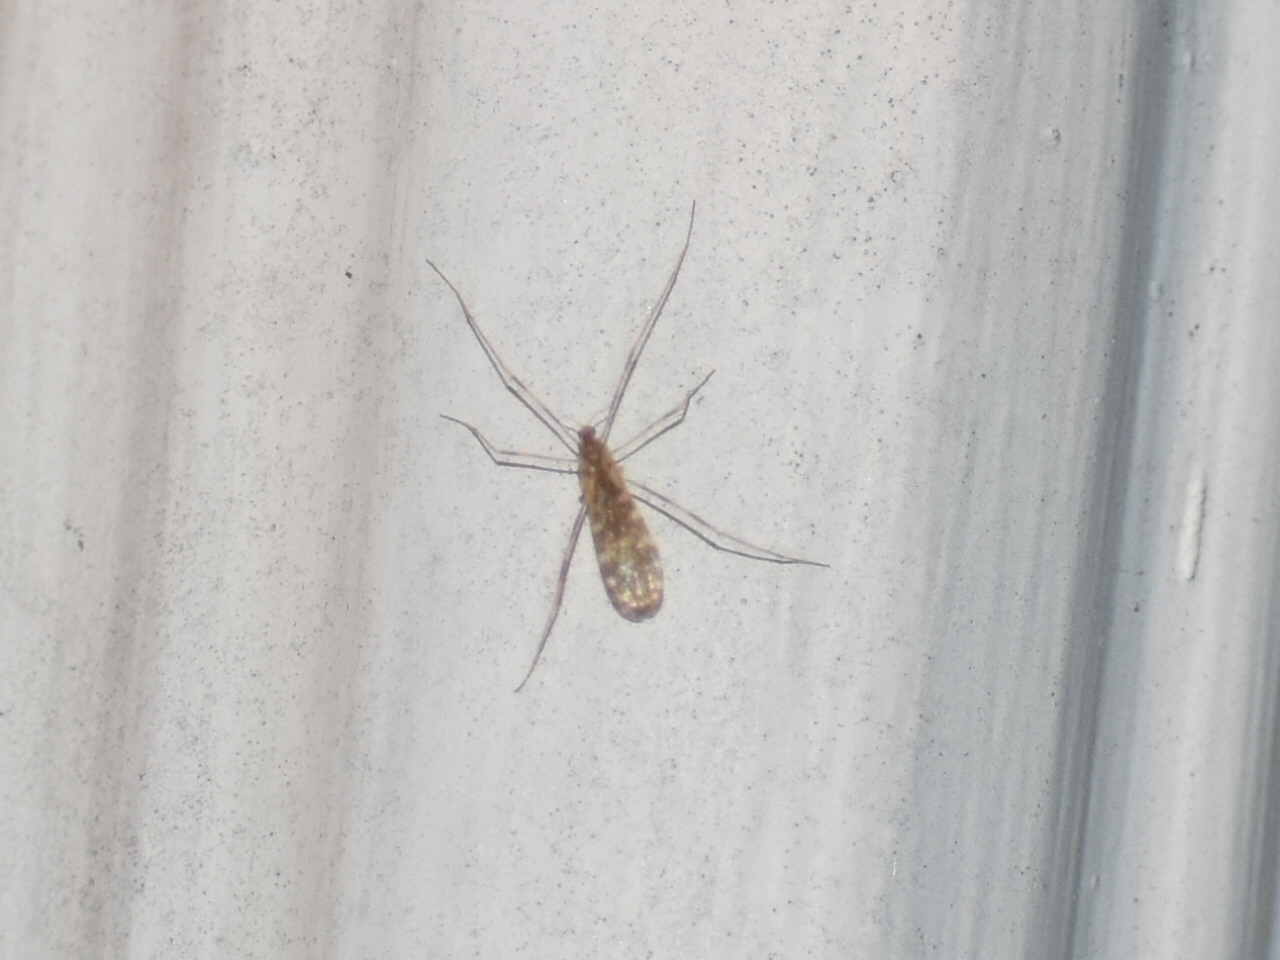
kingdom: Animalia
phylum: Arthropoda
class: Insecta
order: Diptera
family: Limoniidae
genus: Erioptera
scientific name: Erioptera caliptera
